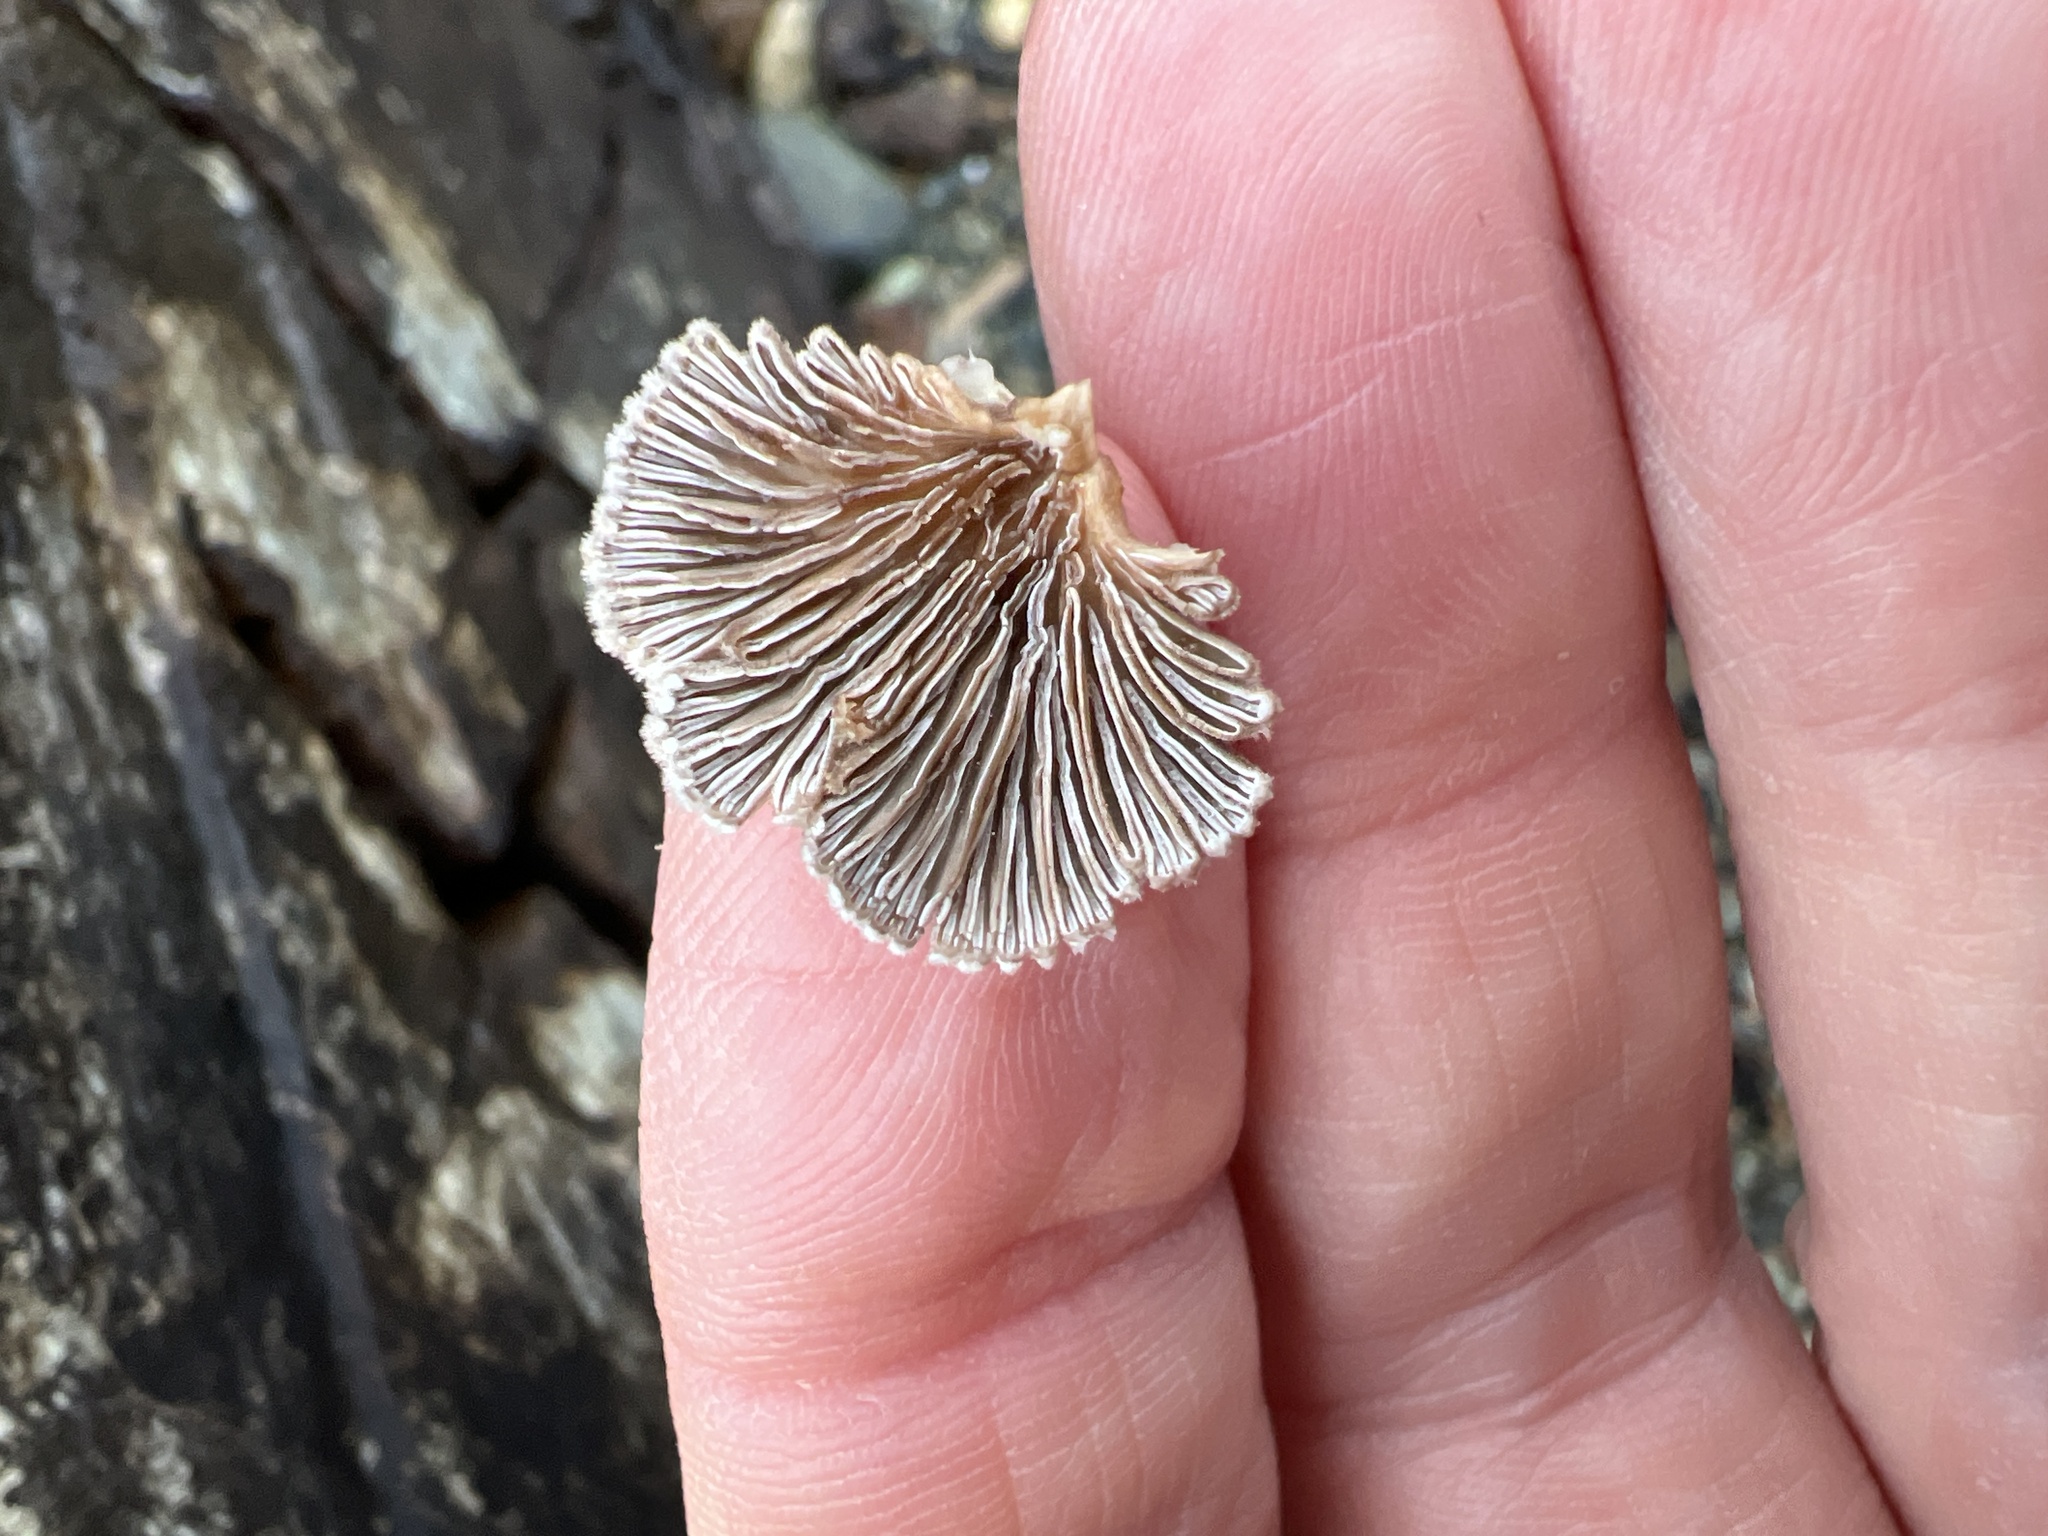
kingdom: Fungi
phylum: Basidiomycota
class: Agaricomycetes
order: Agaricales
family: Schizophyllaceae
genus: Schizophyllum
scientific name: Schizophyllum commune
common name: Common porecrust
